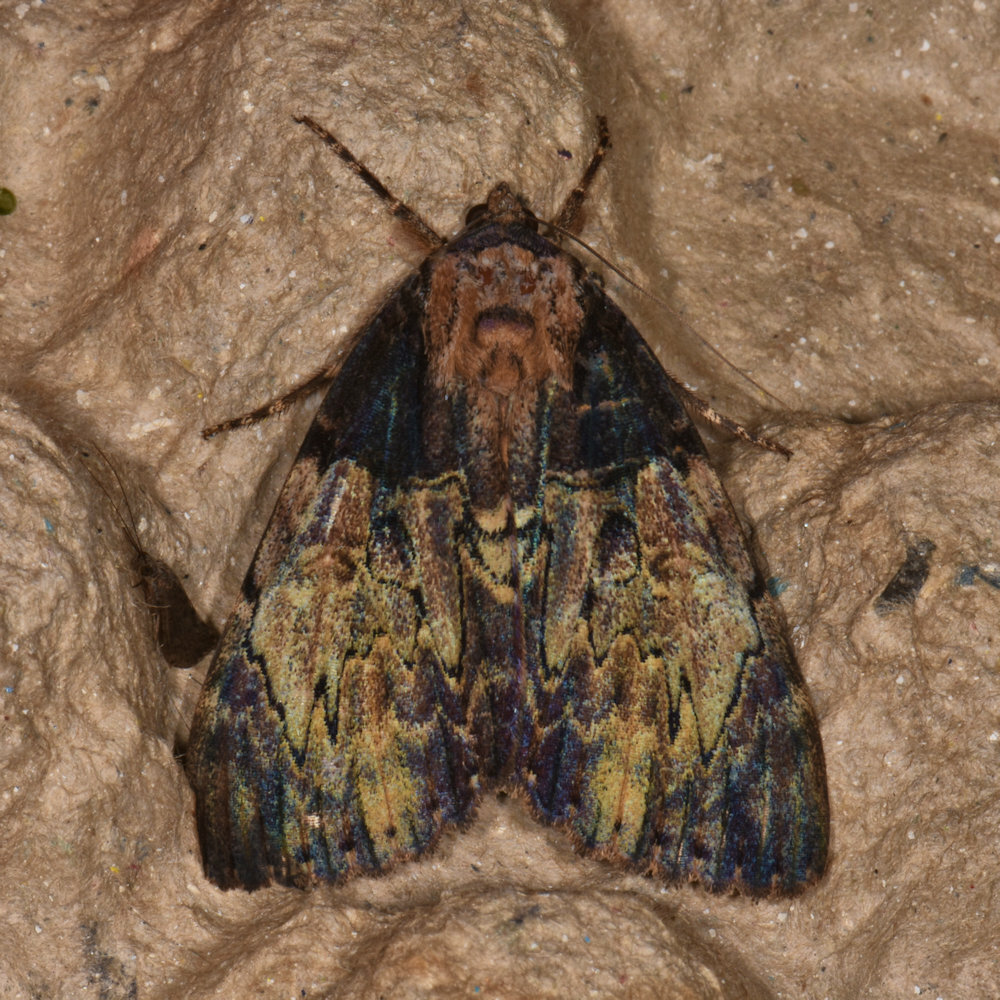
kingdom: Animalia
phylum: Arthropoda
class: Insecta
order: Lepidoptera
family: Erebidae
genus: Catocala
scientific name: Catocala nebulosa
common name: Clouded underwing
